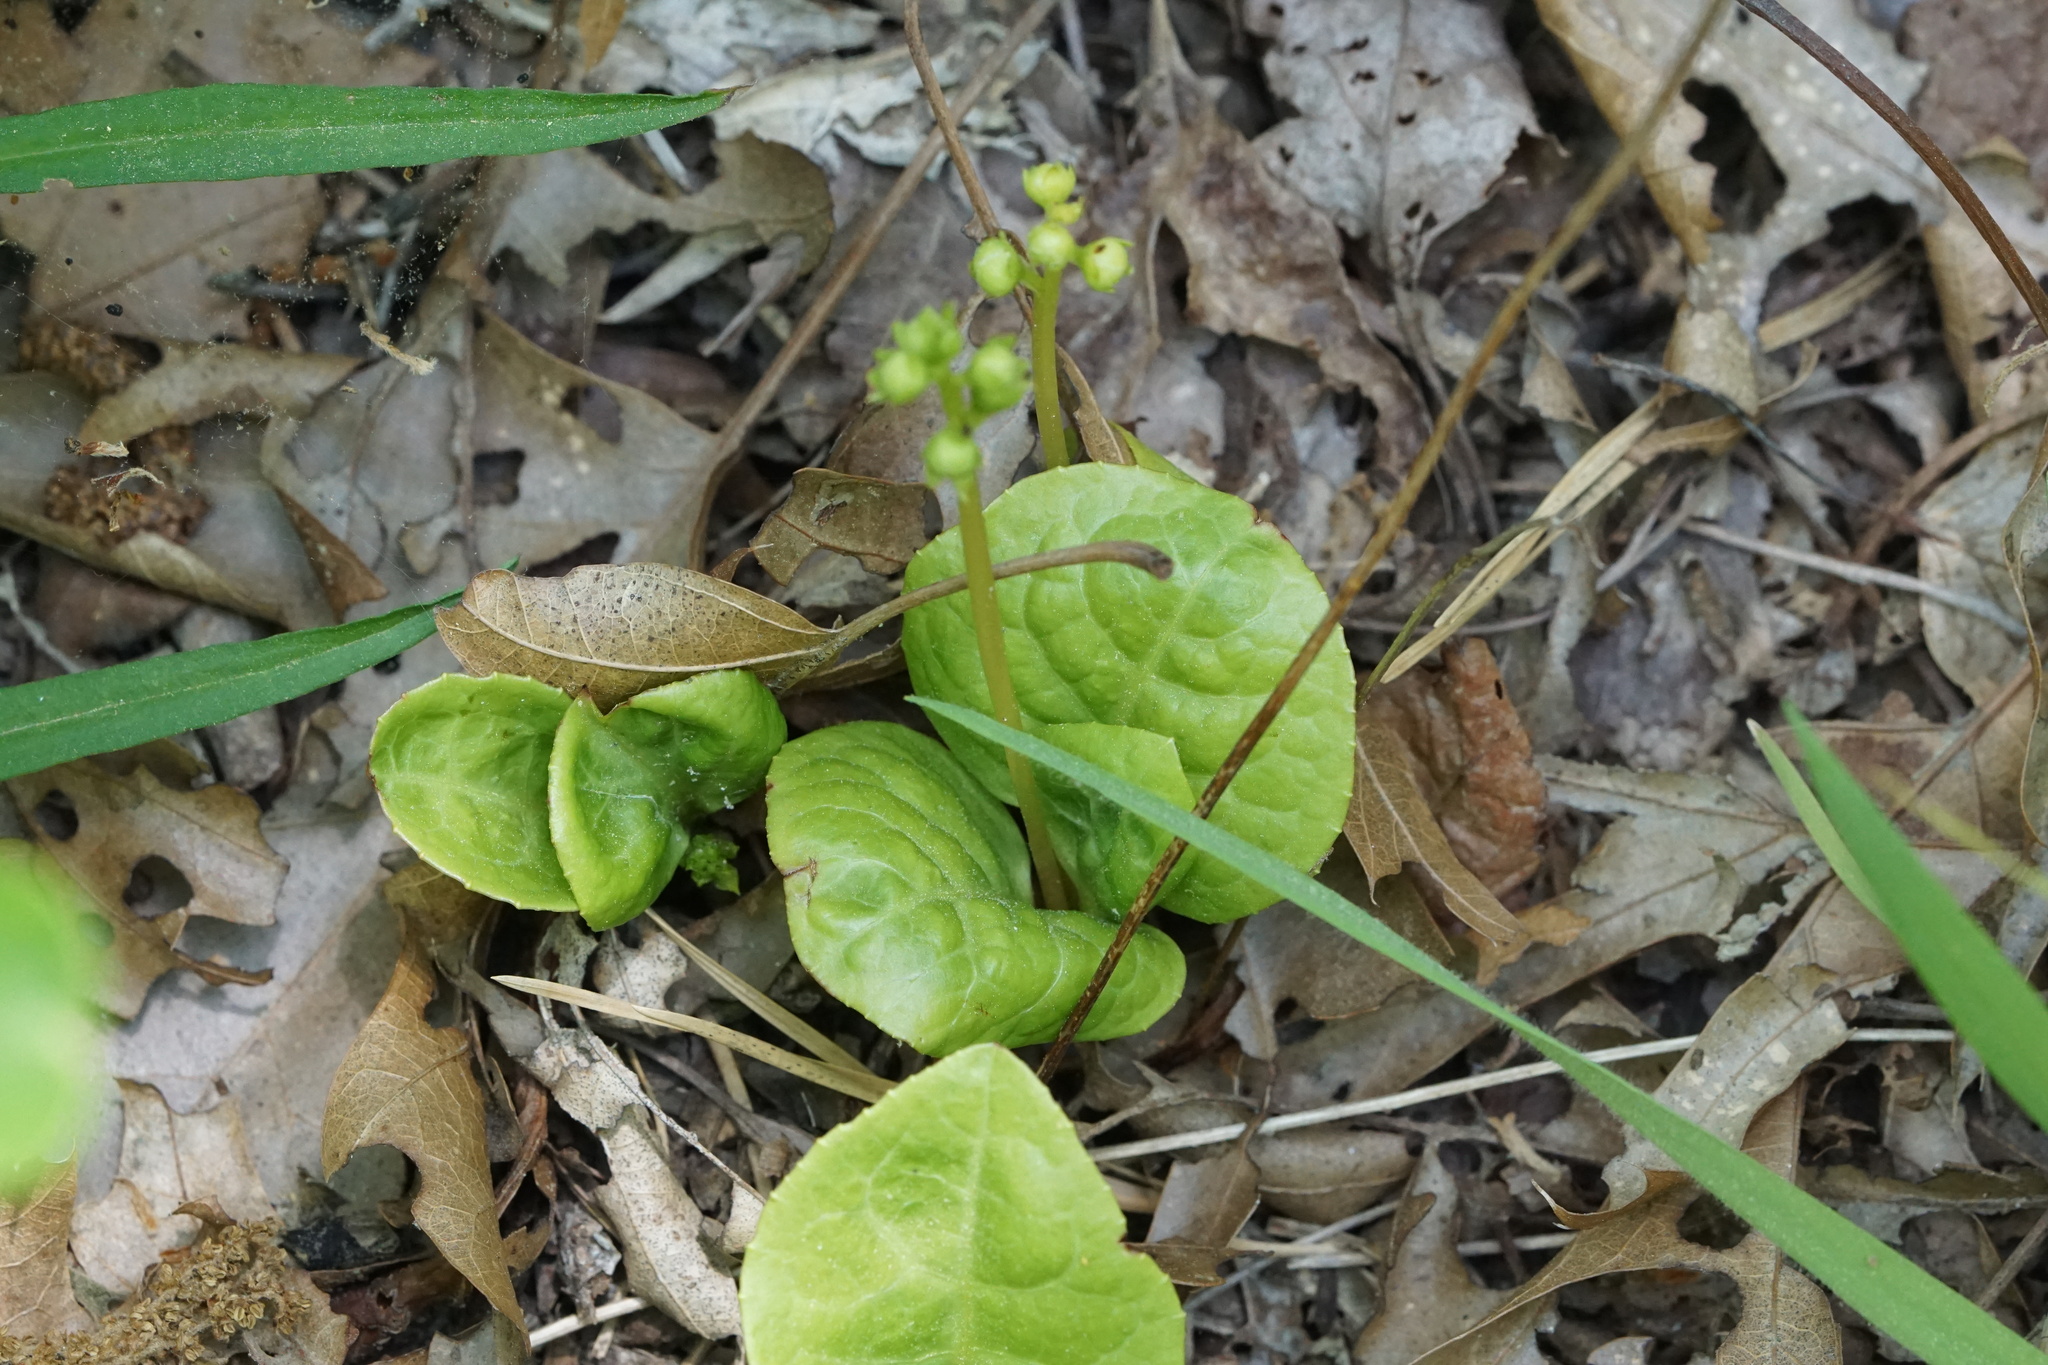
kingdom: Plantae
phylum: Tracheophyta
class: Magnoliopsida
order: Ericales
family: Ericaceae
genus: Pyrola
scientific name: Pyrola americana
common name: American wintergreen
